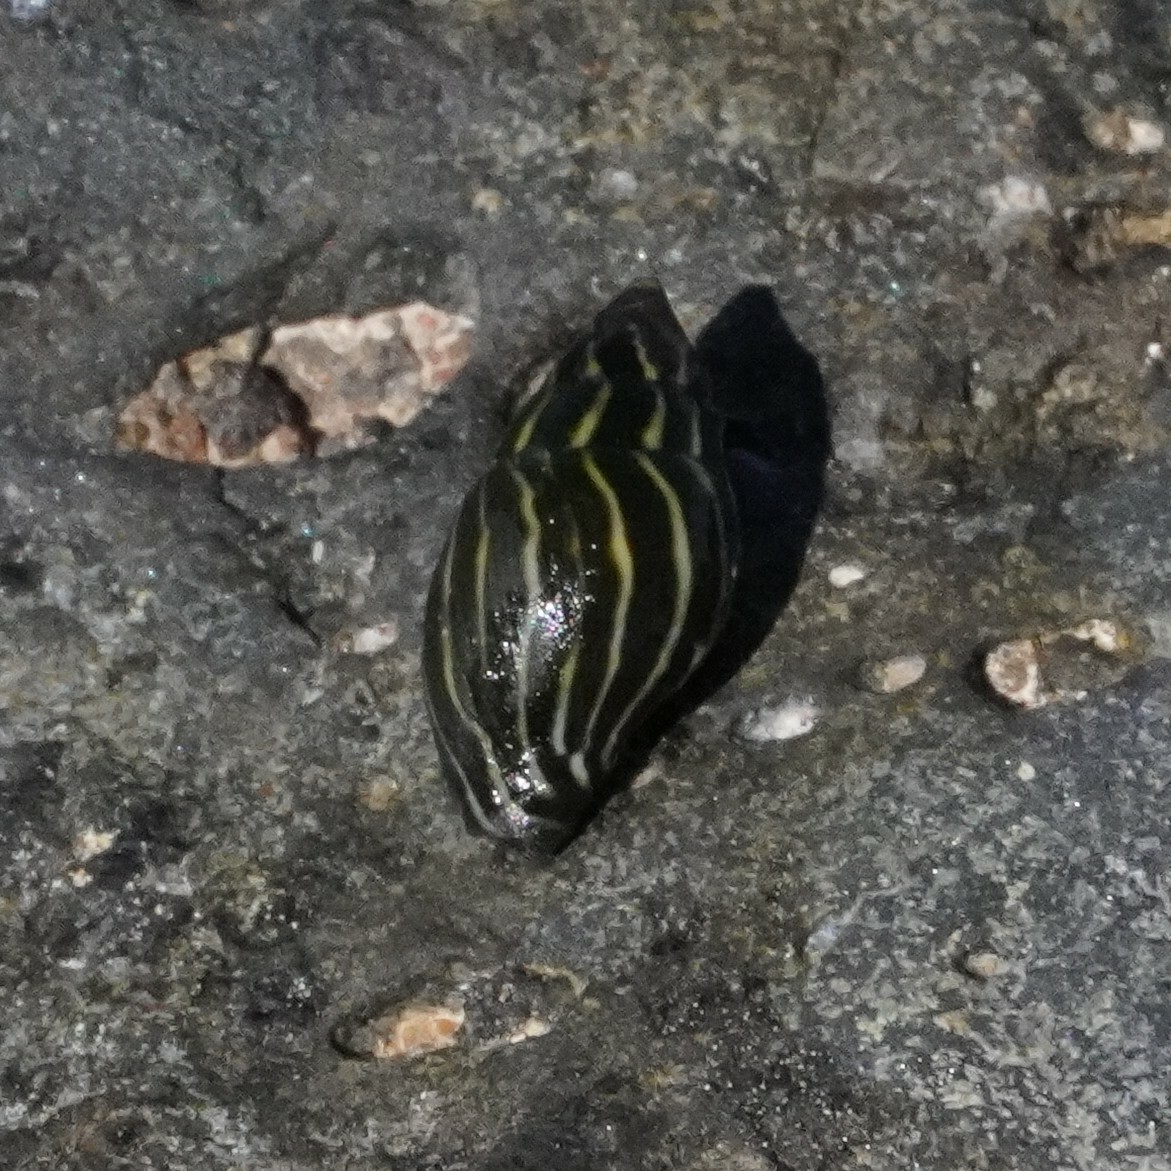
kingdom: Animalia
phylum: Mollusca
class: Gastropoda
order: Neogastropoda
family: Costellariidae
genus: Pusia
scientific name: Pusia zebrina
